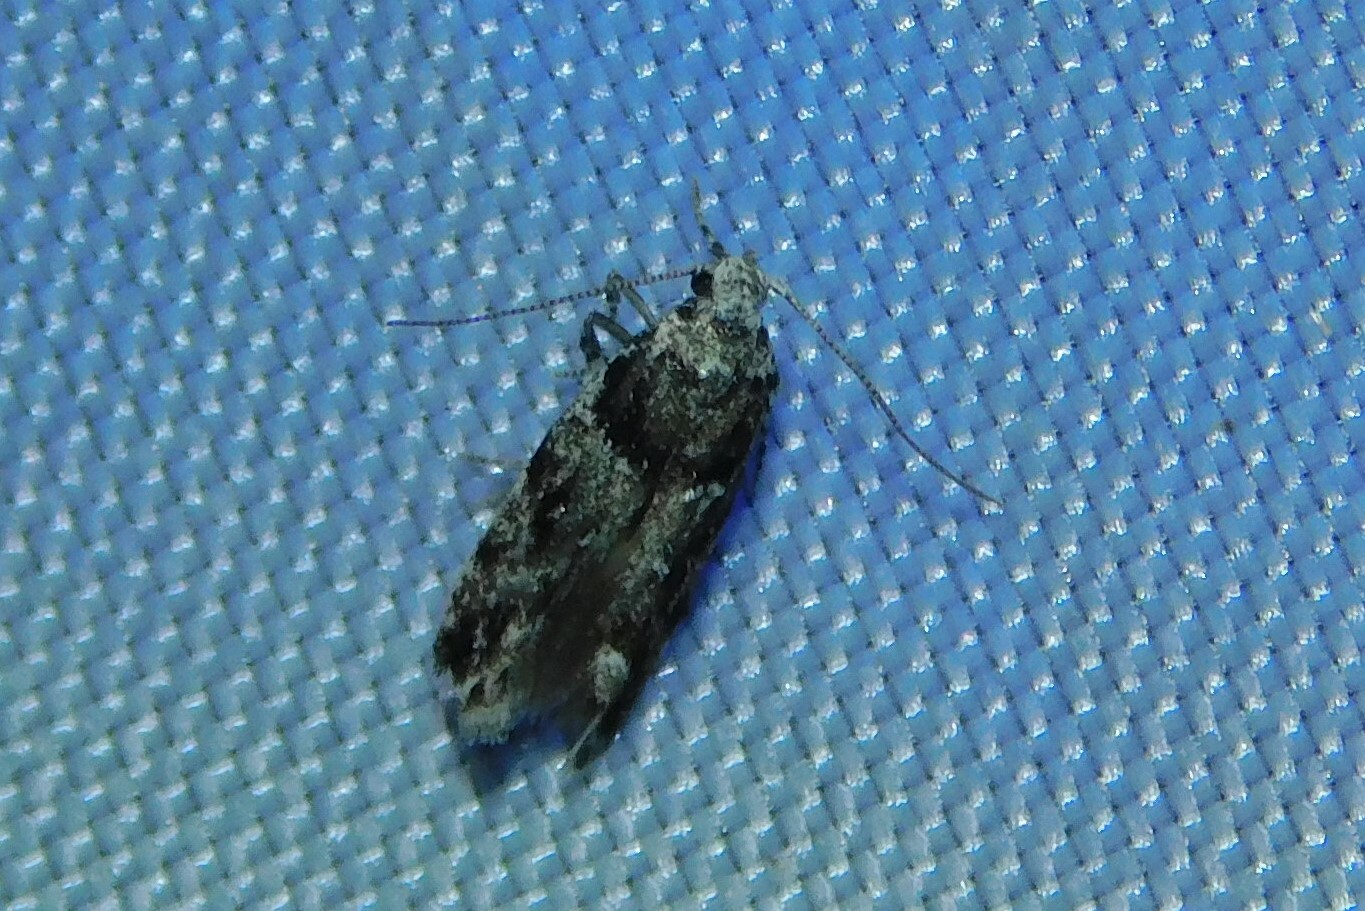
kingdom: Animalia
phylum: Arthropoda
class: Insecta
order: Lepidoptera
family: Gelechiidae
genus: Recurvaria
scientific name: Recurvaria nanella
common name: Gelechiid moth
